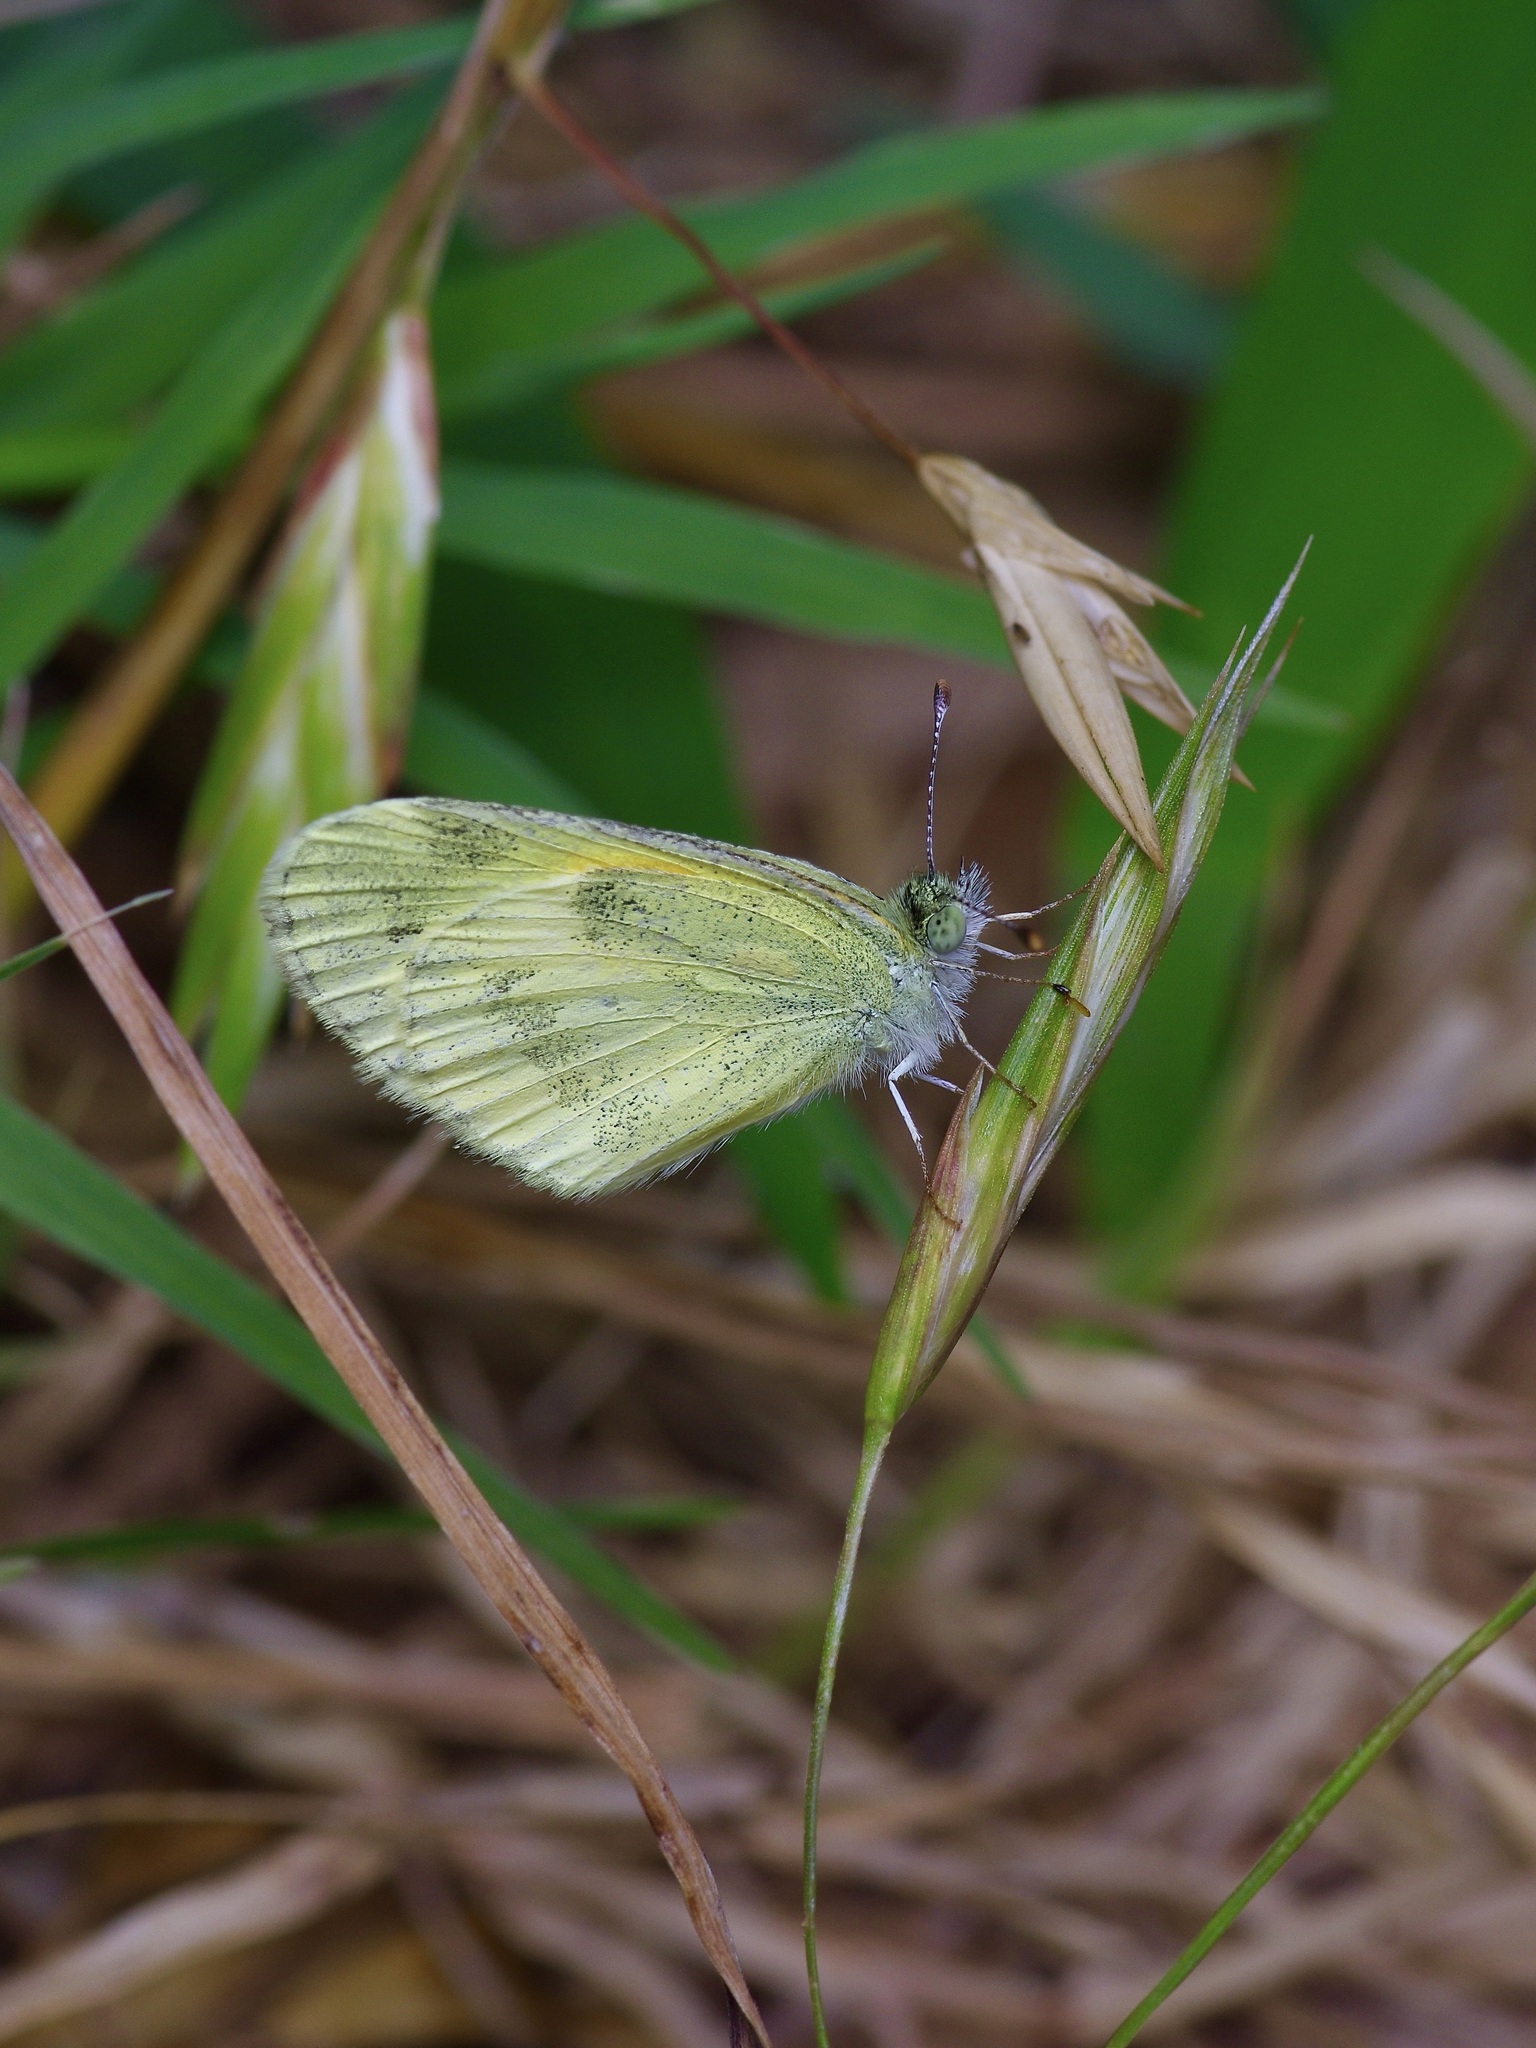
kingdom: Animalia
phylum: Arthropoda
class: Insecta
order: Lepidoptera
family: Pieridae
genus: Nathalis
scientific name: Nathalis iole
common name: Dainty sulphur
